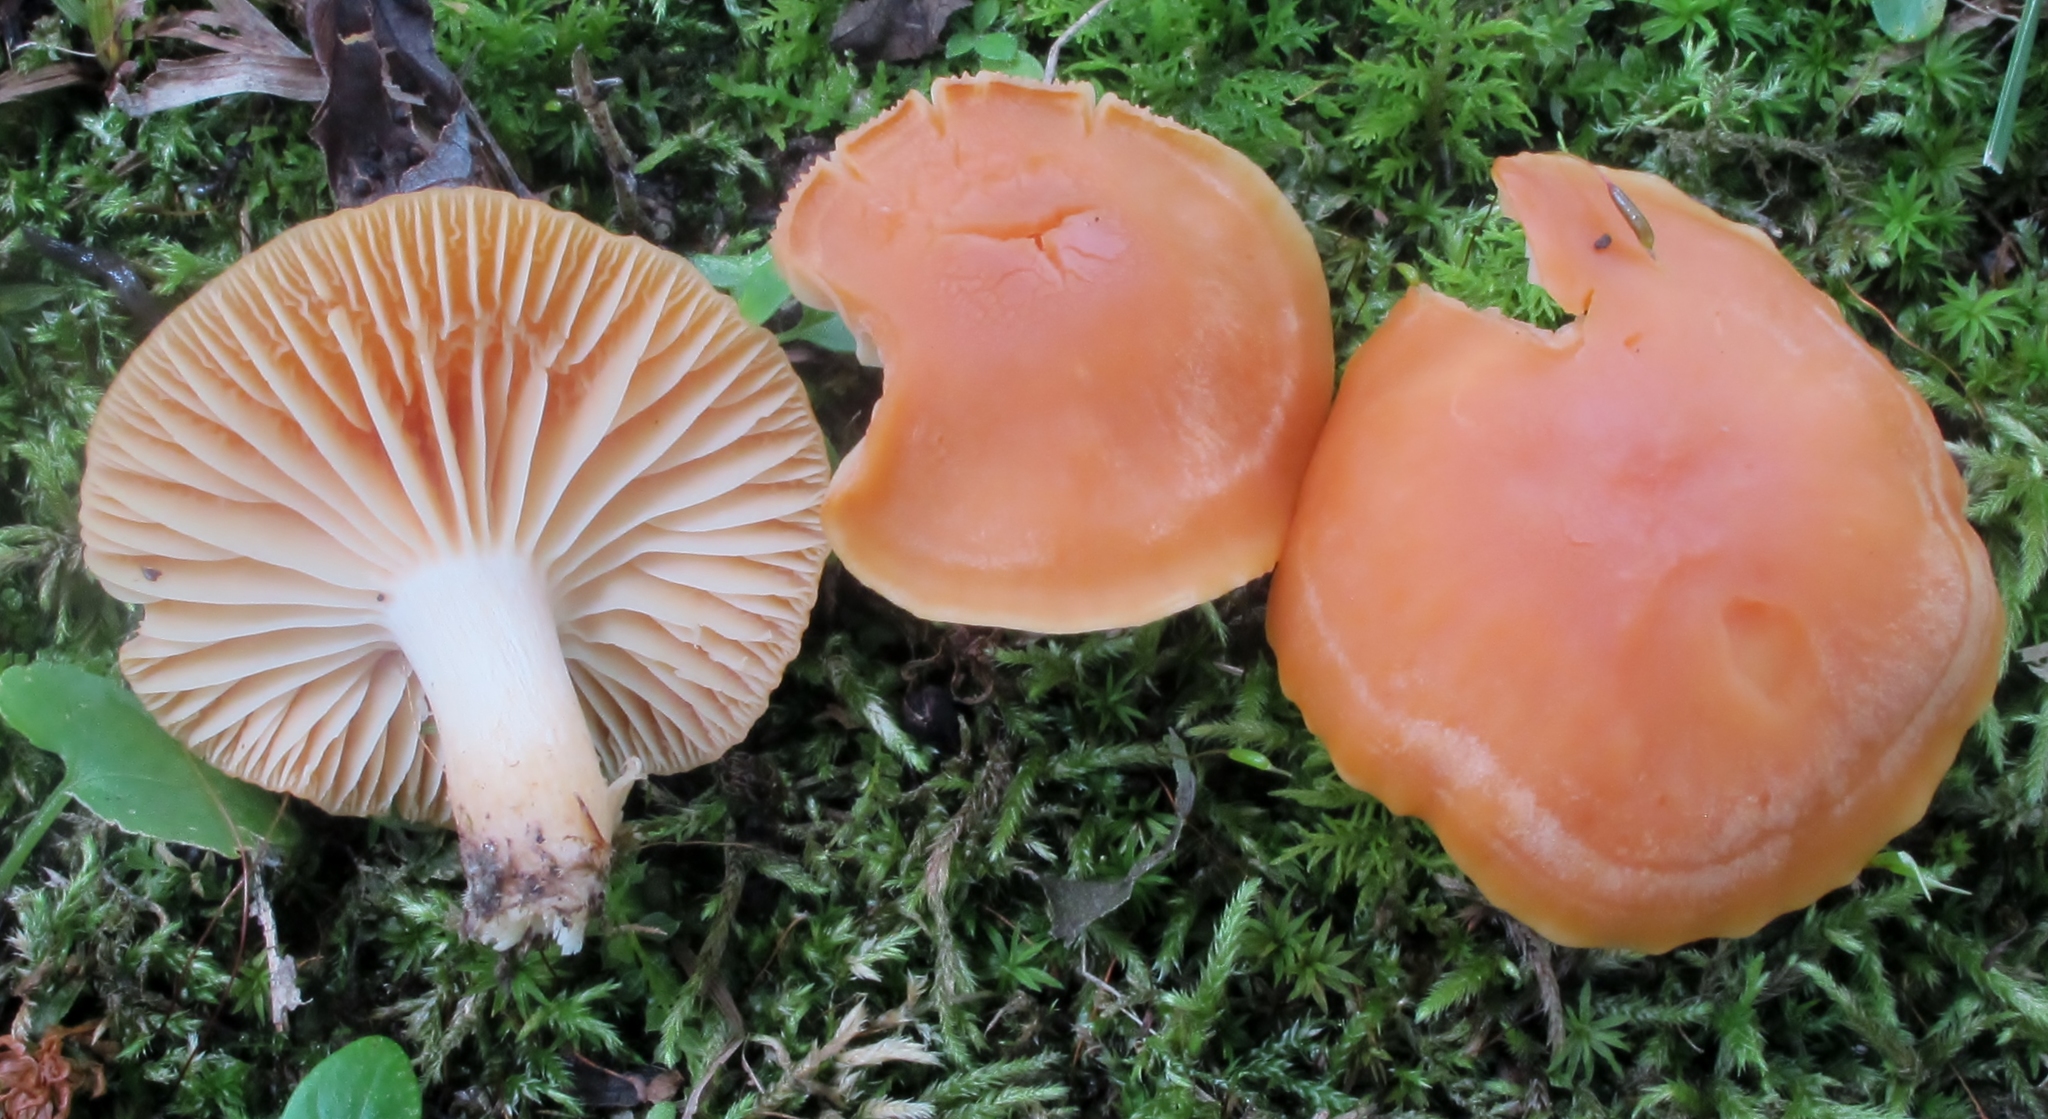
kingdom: Fungi
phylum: Basidiomycota
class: Agaricomycetes
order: Agaricales
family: Hygrophoraceae
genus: Cuphophyllus
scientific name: Cuphophyllus pratensis
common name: Meadow waxcap
